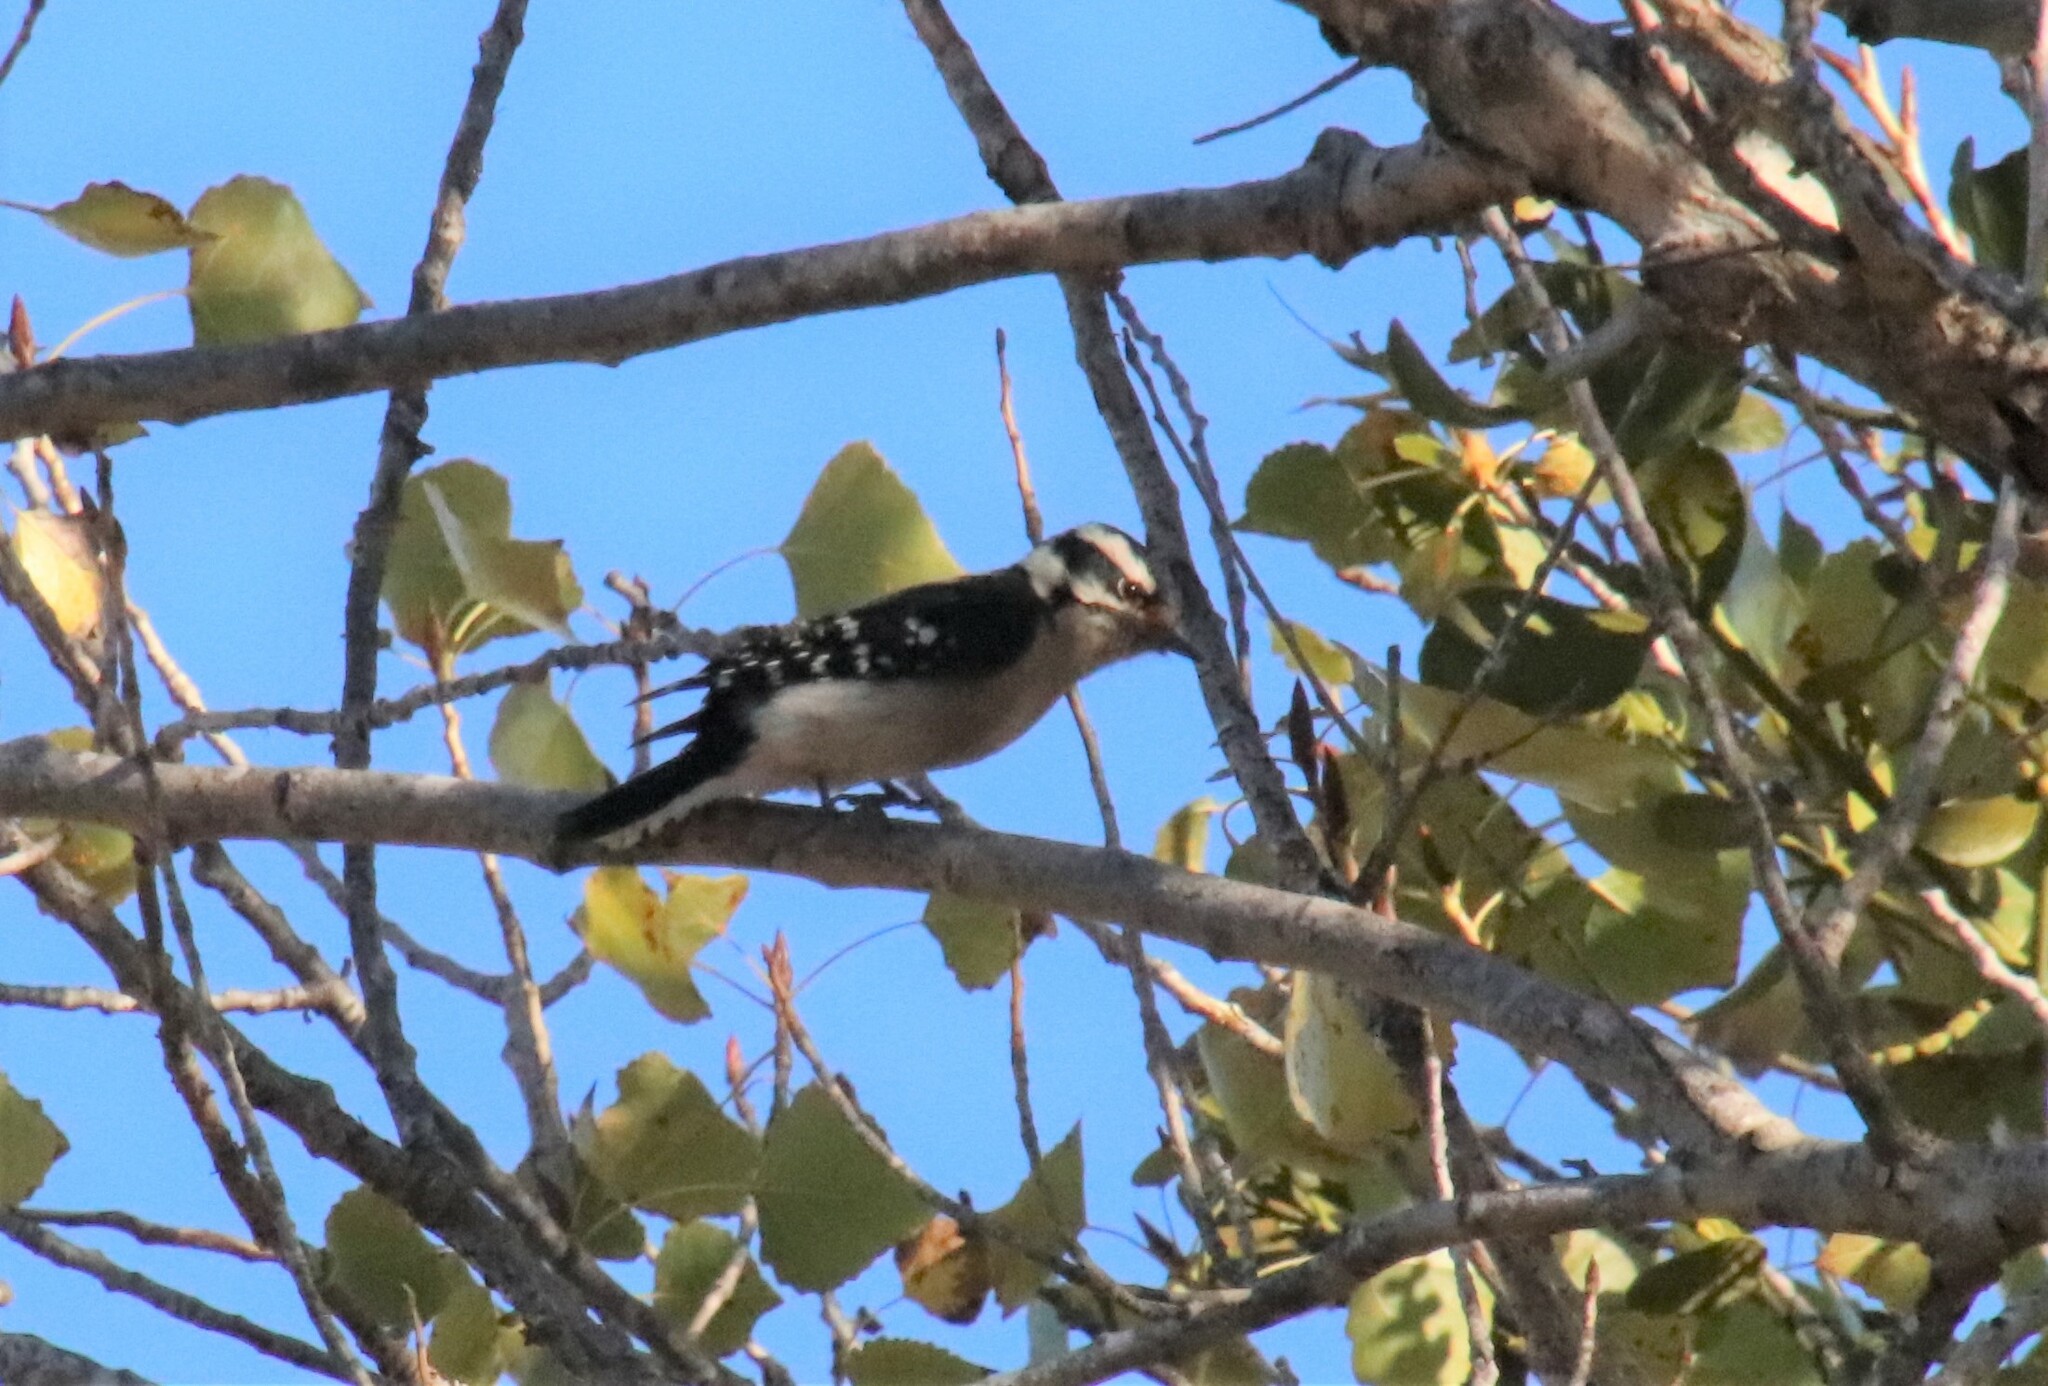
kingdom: Animalia
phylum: Chordata
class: Aves
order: Piciformes
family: Picidae
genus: Dryobates
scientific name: Dryobates pubescens
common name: Downy woodpecker
